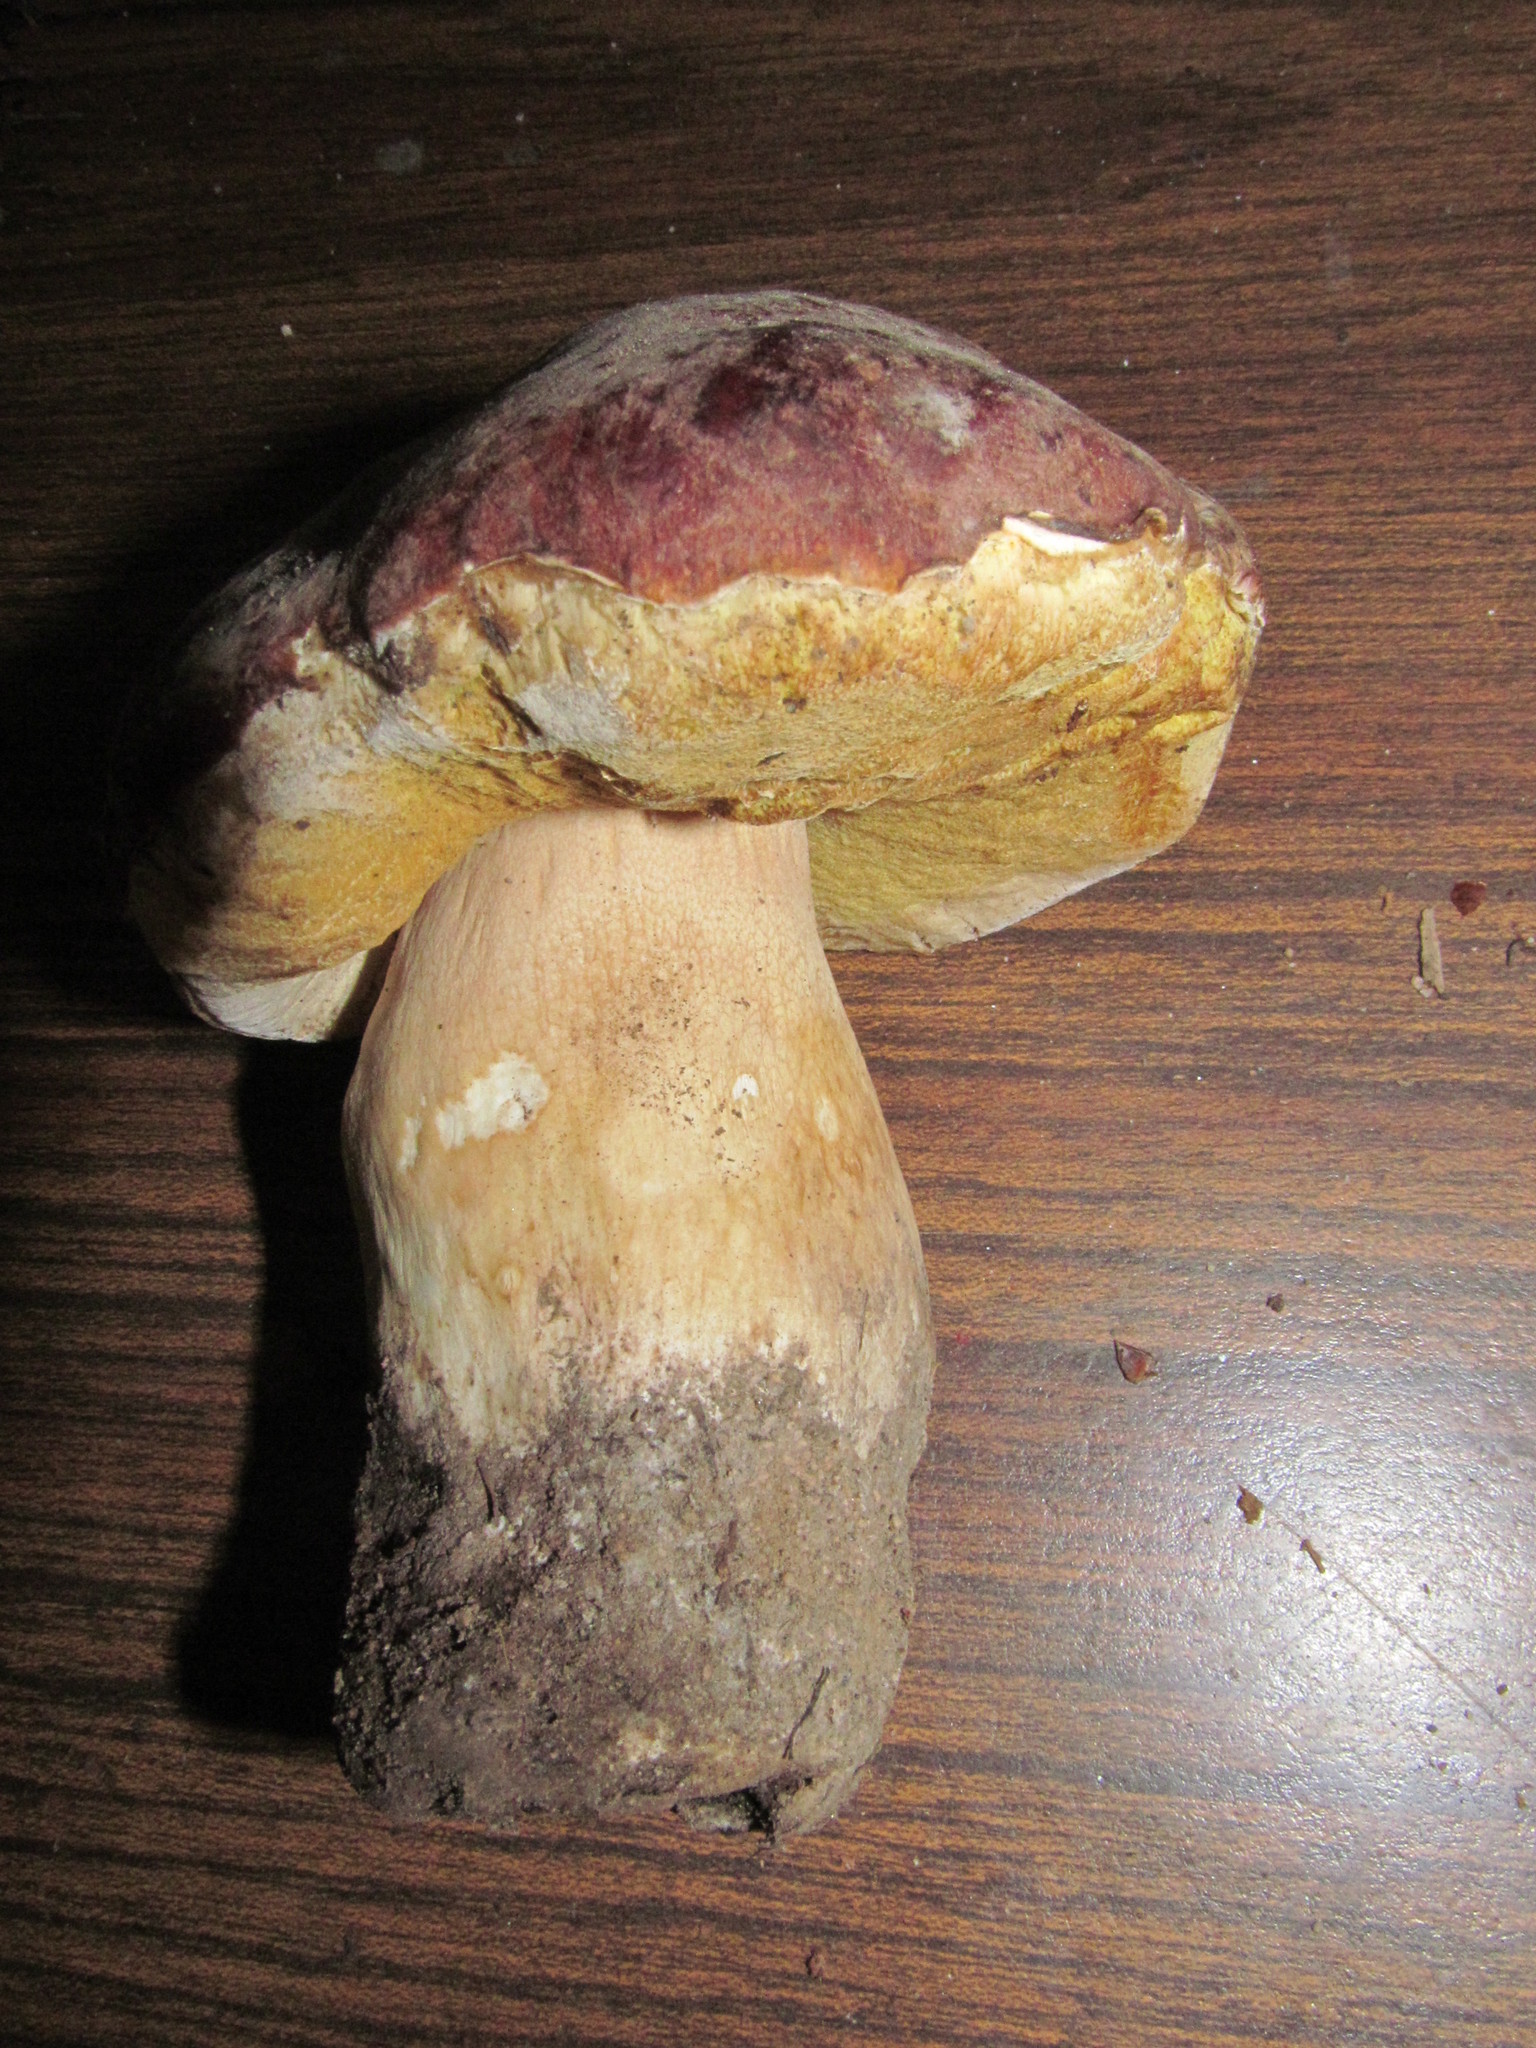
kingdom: Fungi
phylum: Basidiomycota
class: Agaricomycetes
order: Boletales
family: Boletaceae
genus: Boletus
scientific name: Boletus rex-veris
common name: Spring king
